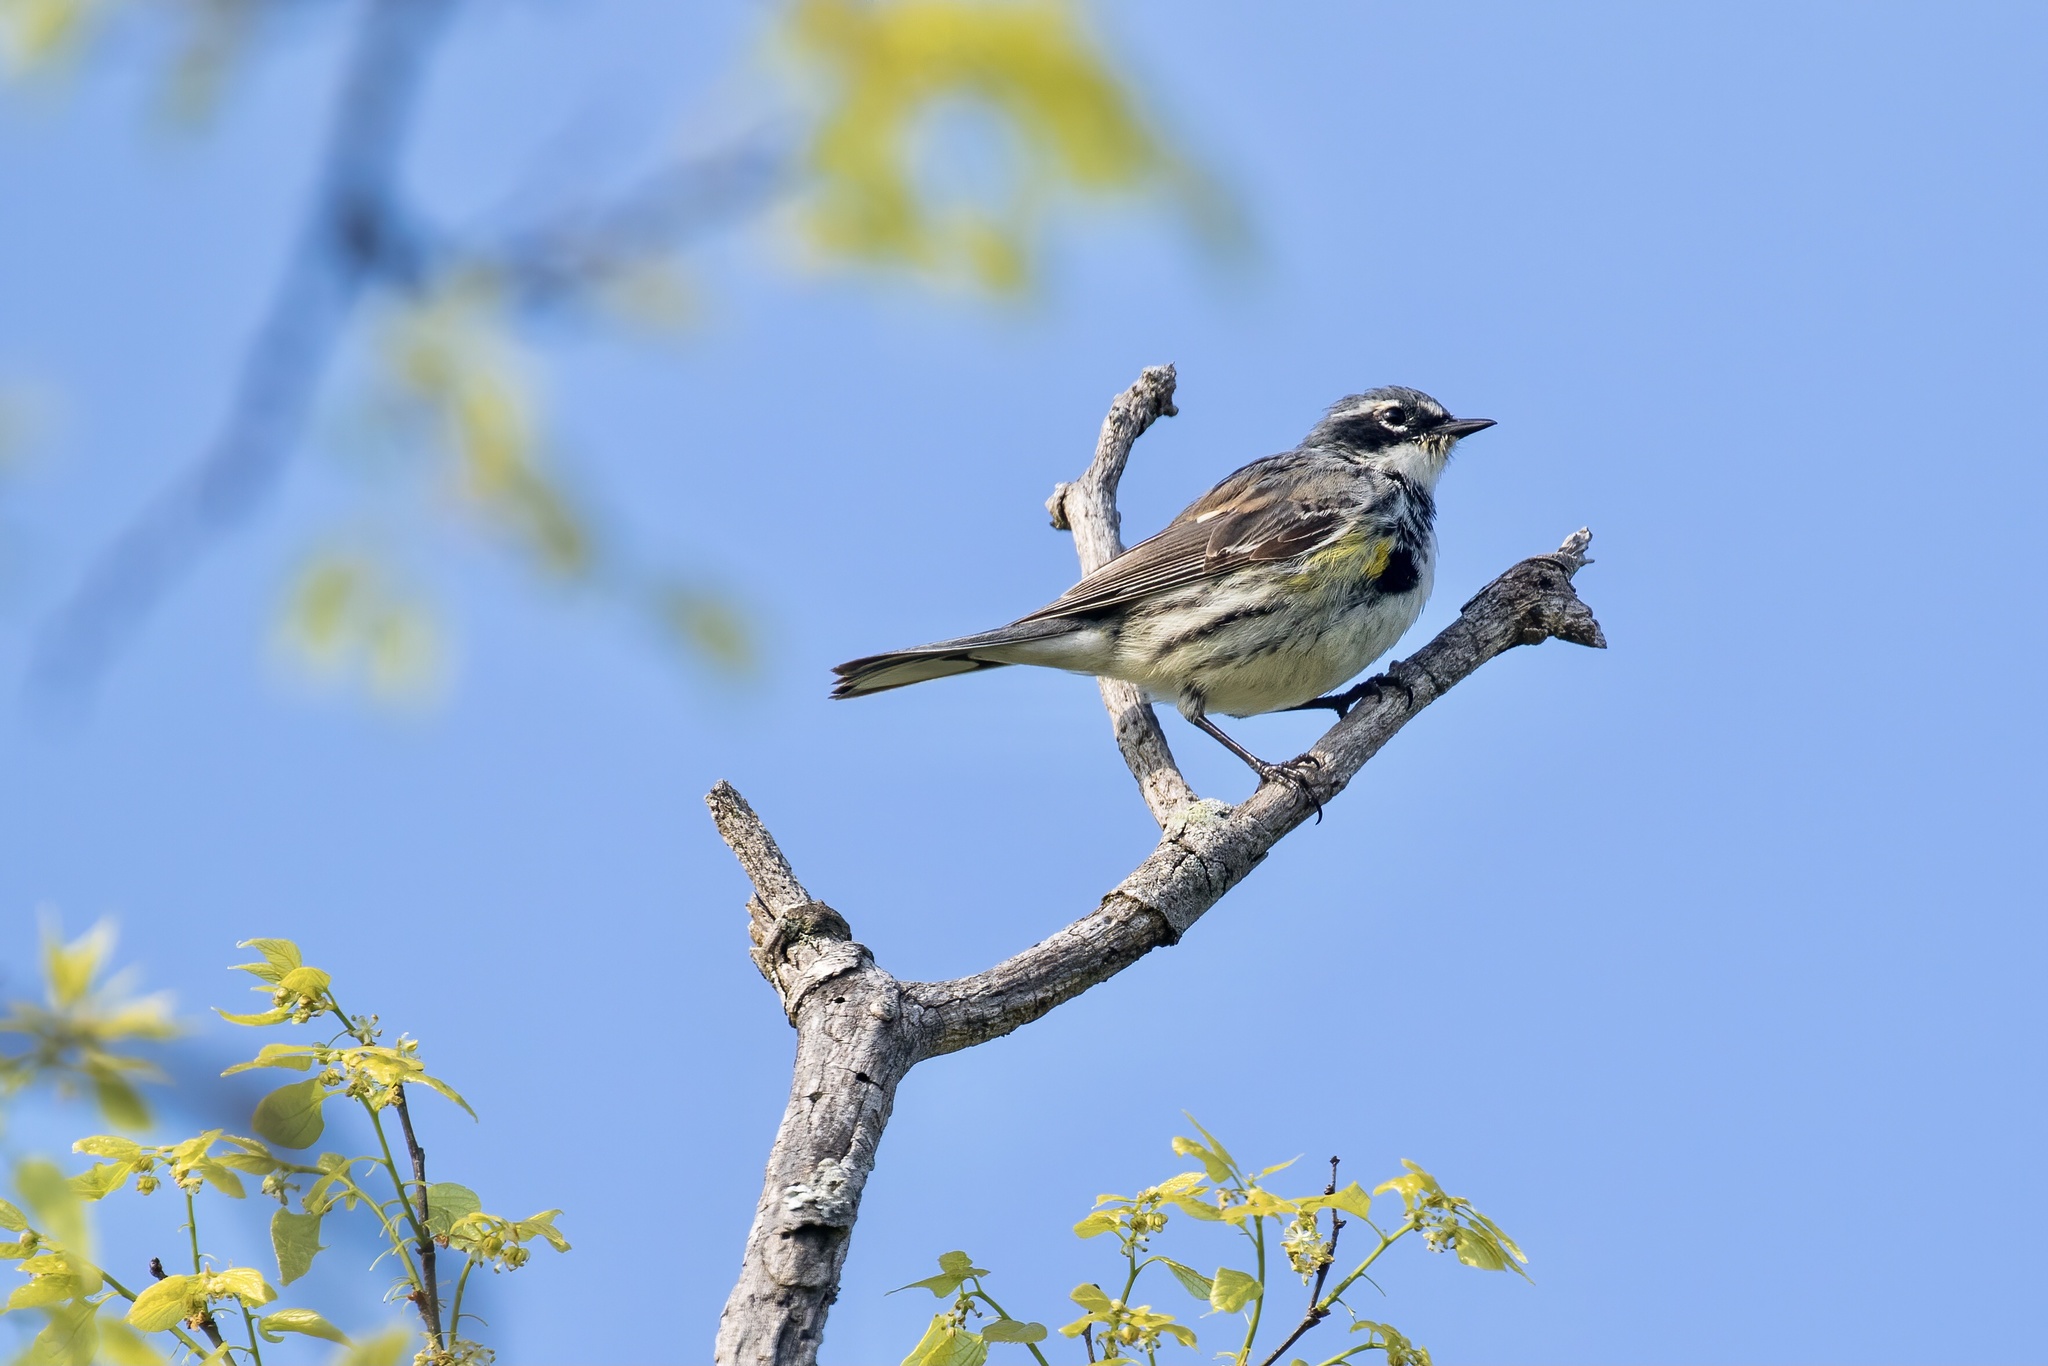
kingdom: Animalia
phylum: Chordata
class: Aves
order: Passeriformes
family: Parulidae
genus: Setophaga
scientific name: Setophaga coronata
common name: Myrtle warbler
